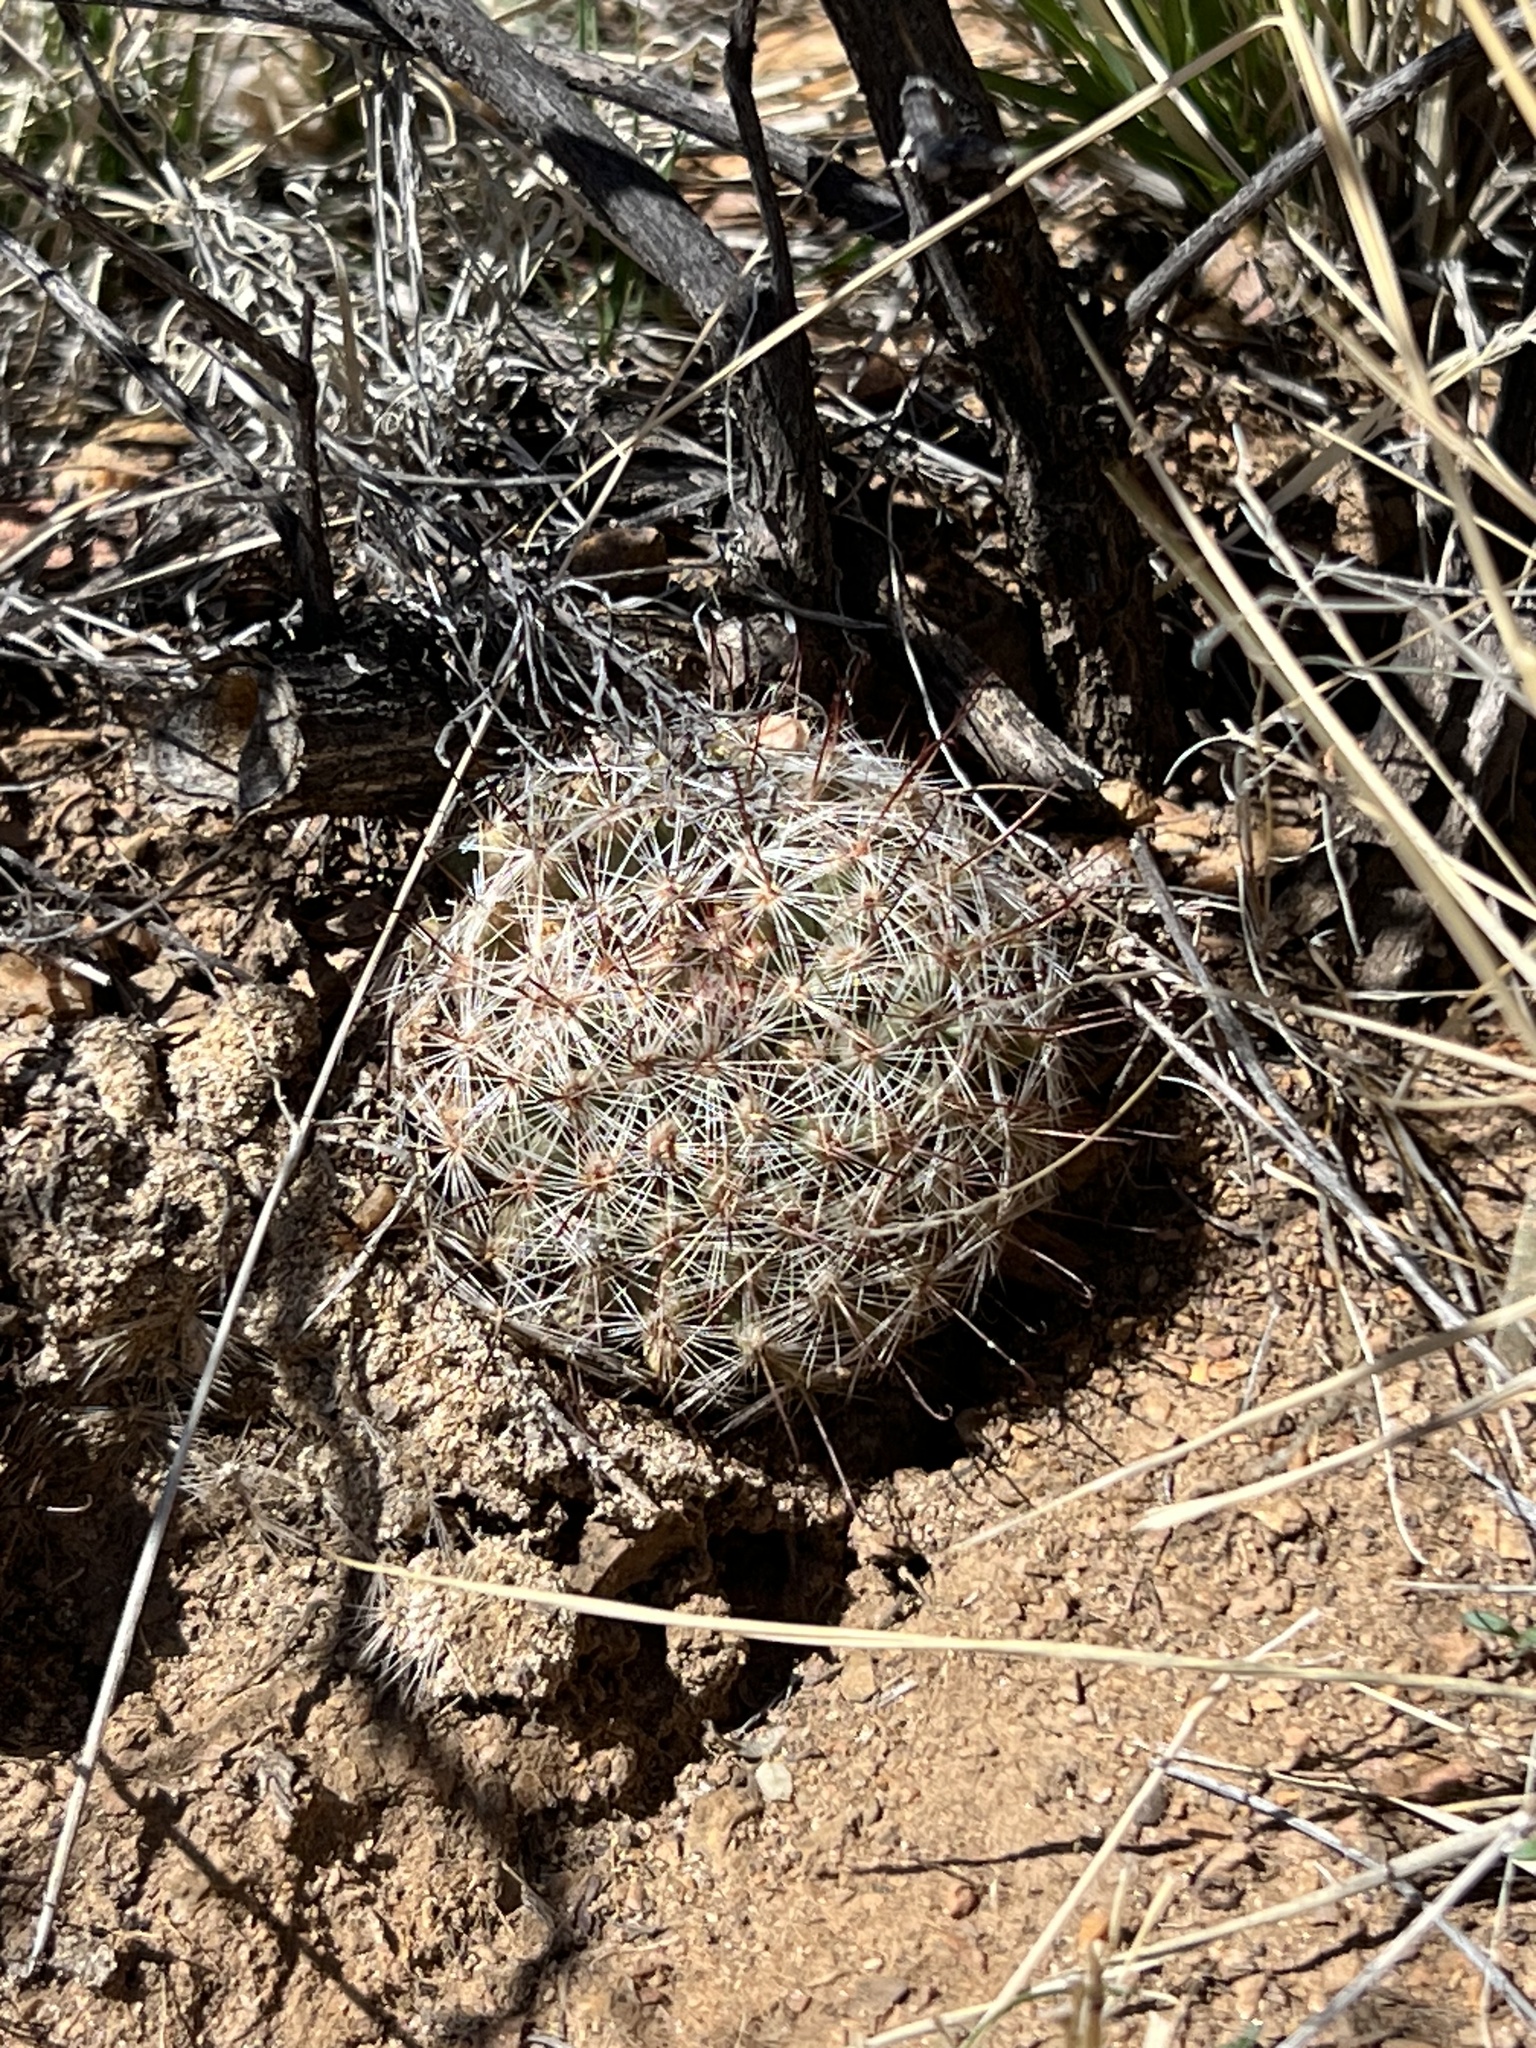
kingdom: Plantae
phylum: Tracheophyta
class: Magnoliopsida
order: Caryophyllales
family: Cactaceae
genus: Cochemiea
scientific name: Cochemiea grahamii
